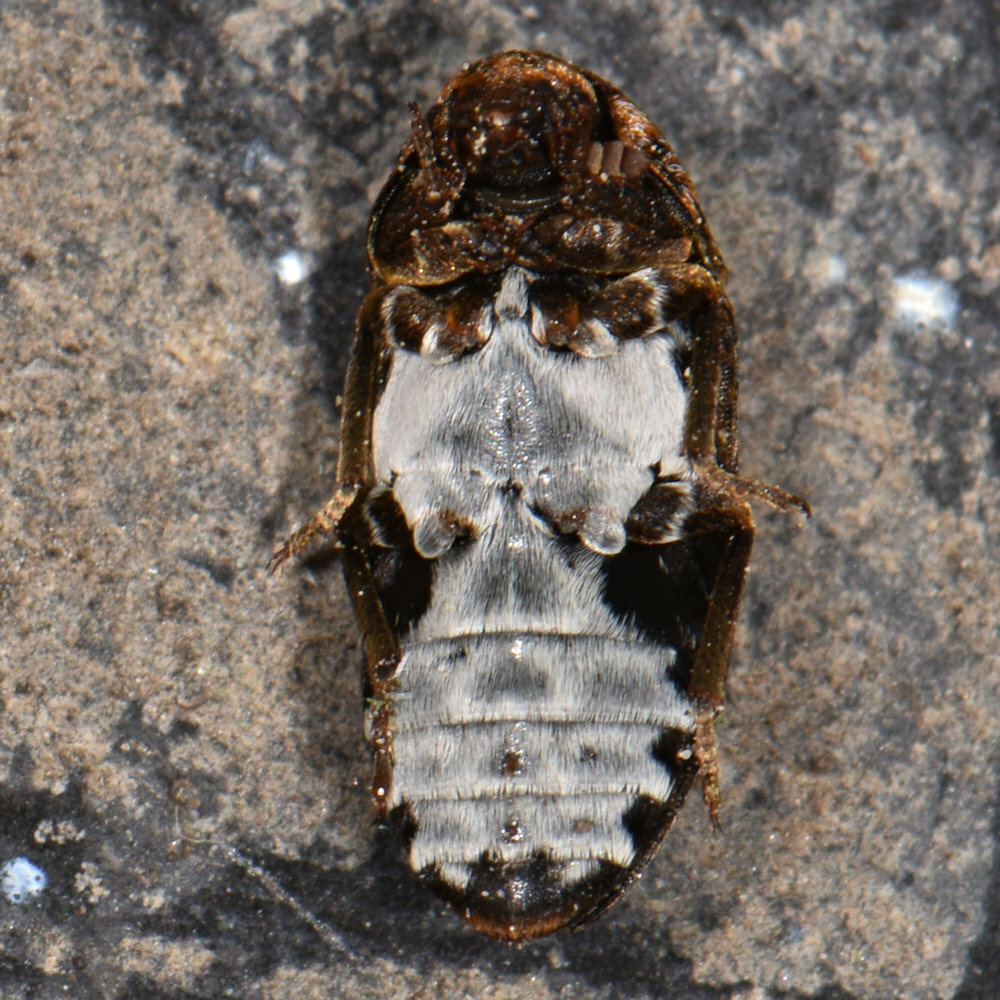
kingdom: Animalia
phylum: Arthropoda
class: Insecta
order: Coleoptera
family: Dermestidae
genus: Dermestes
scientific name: Dermestes undulatus
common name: Wavy carpet beetle
